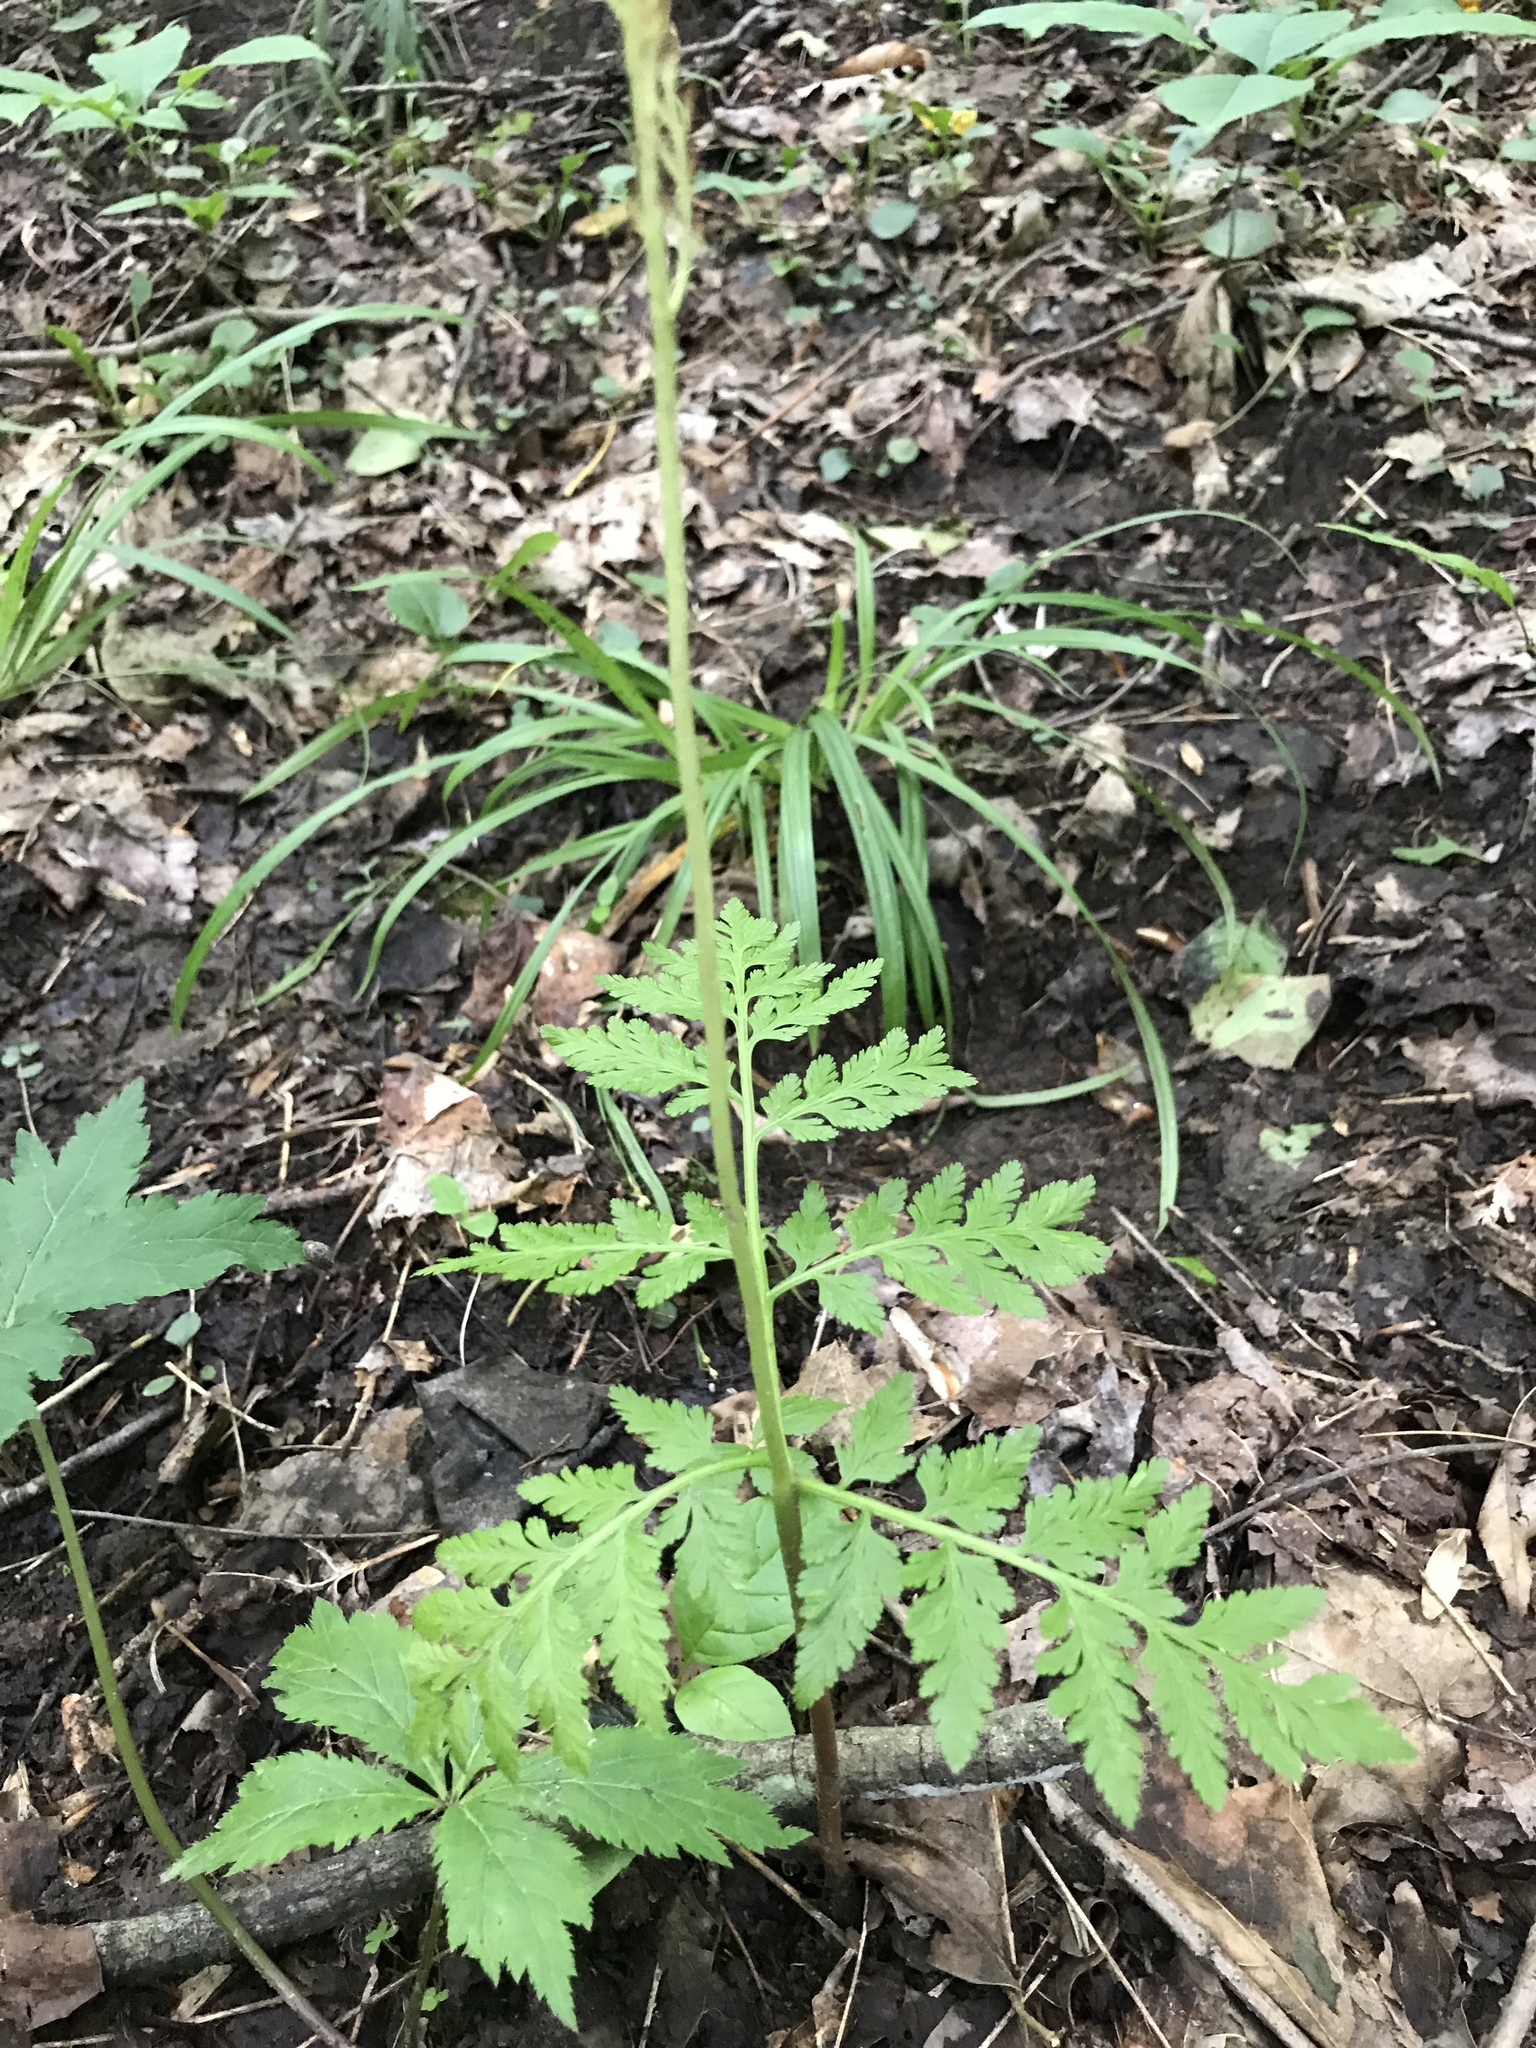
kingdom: Plantae
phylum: Tracheophyta
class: Polypodiopsida
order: Ophioglossales
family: Ophioglossaceae
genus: Botrypus
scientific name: Botrypus virginianus
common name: Common grapefern
